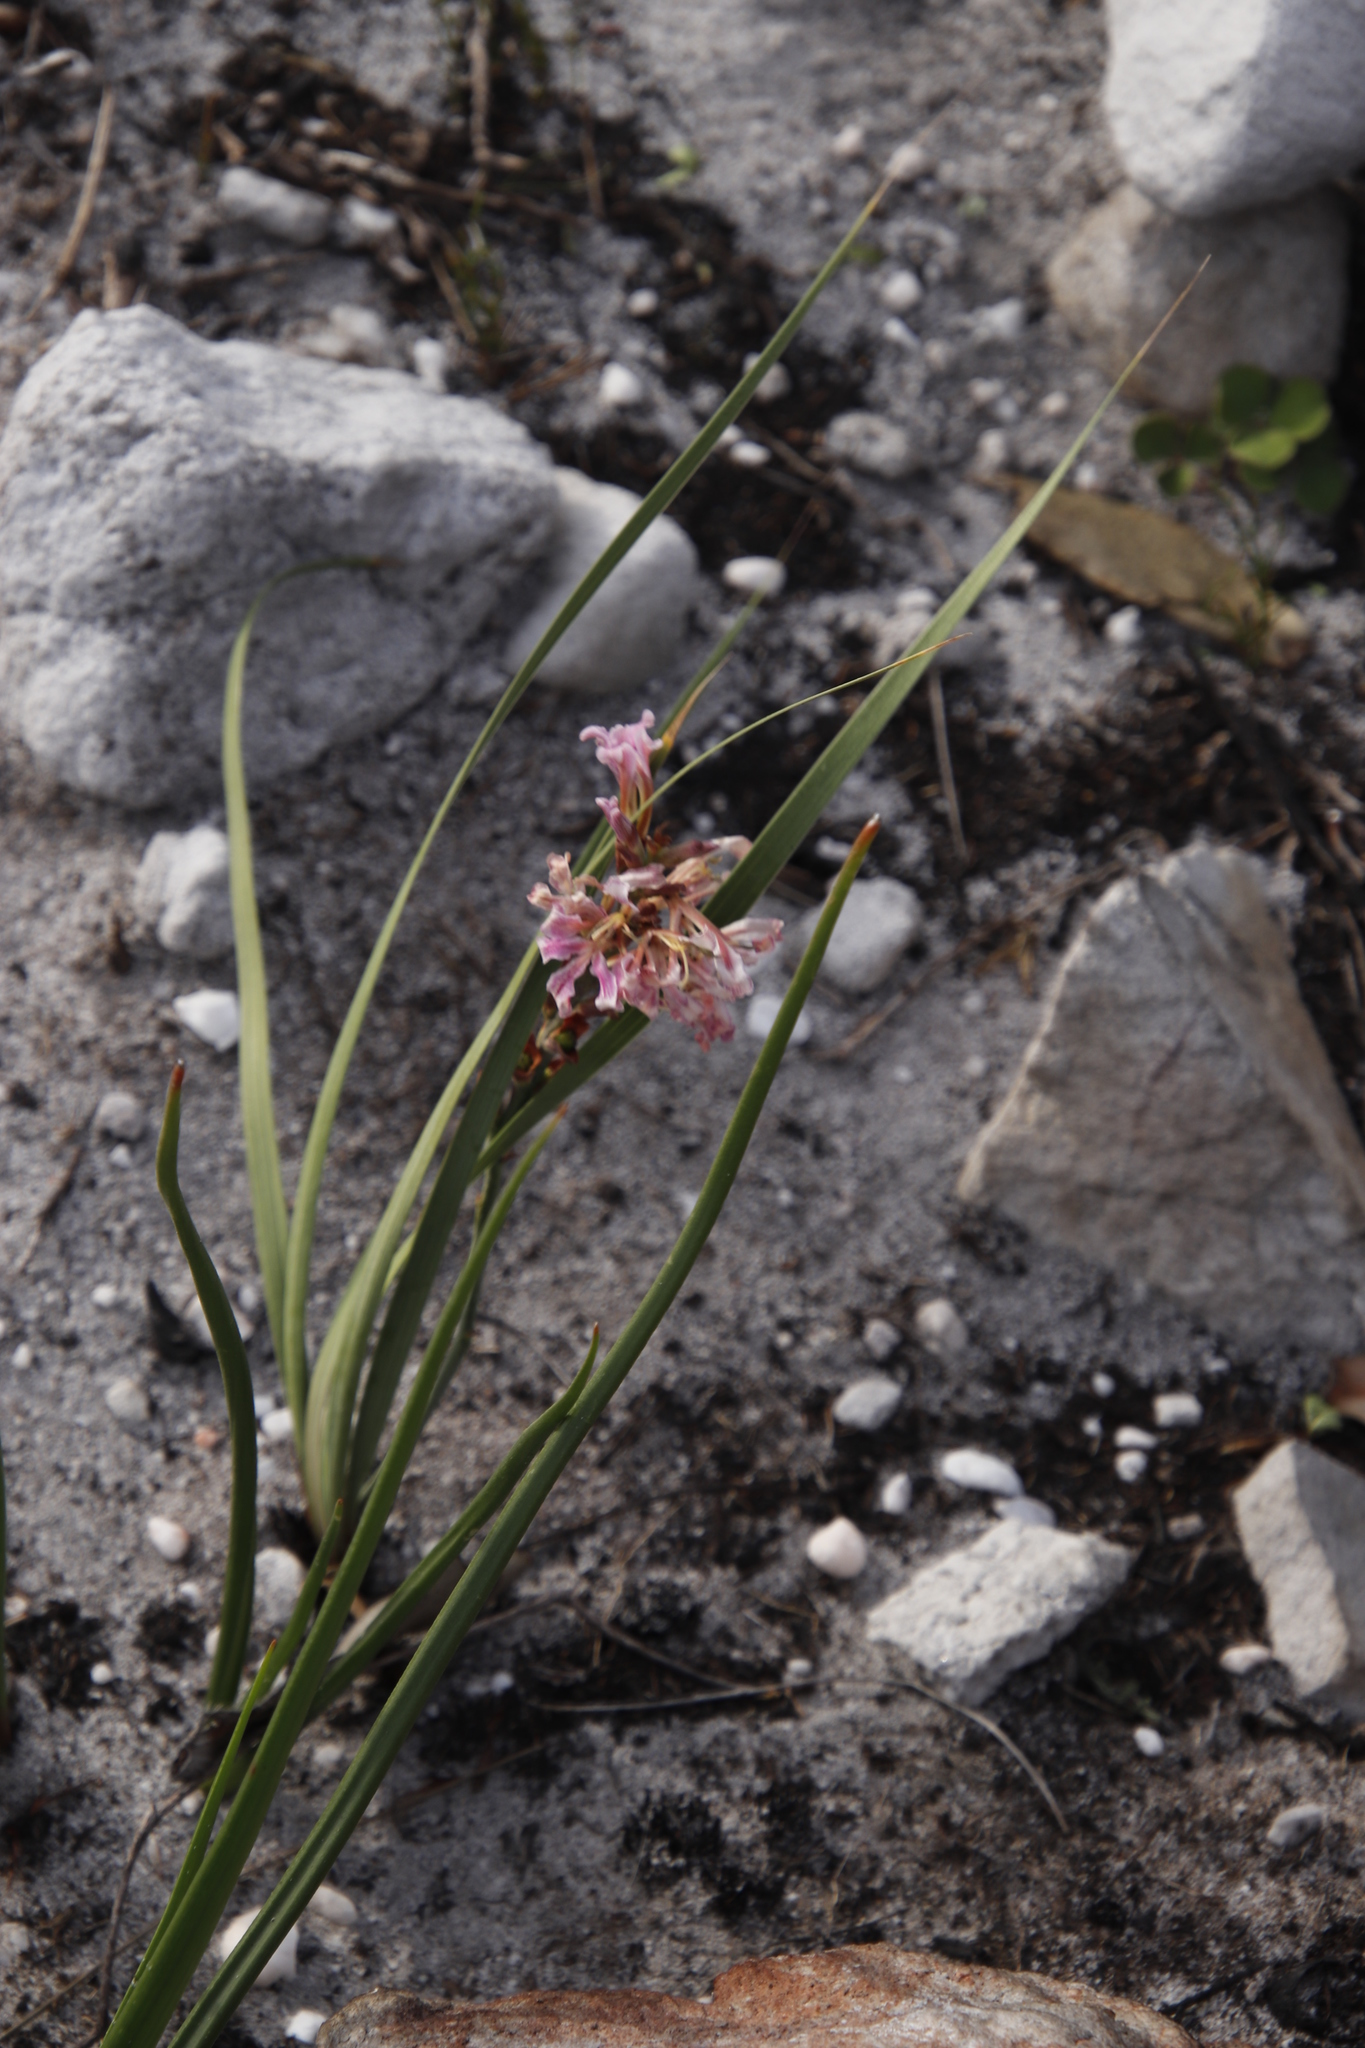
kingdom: Plantae
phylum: Tracheophyta
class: Liliopsida
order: Asparagales
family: Iridaceae
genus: Tritoniopsis
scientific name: Tritoniopsis dodii
